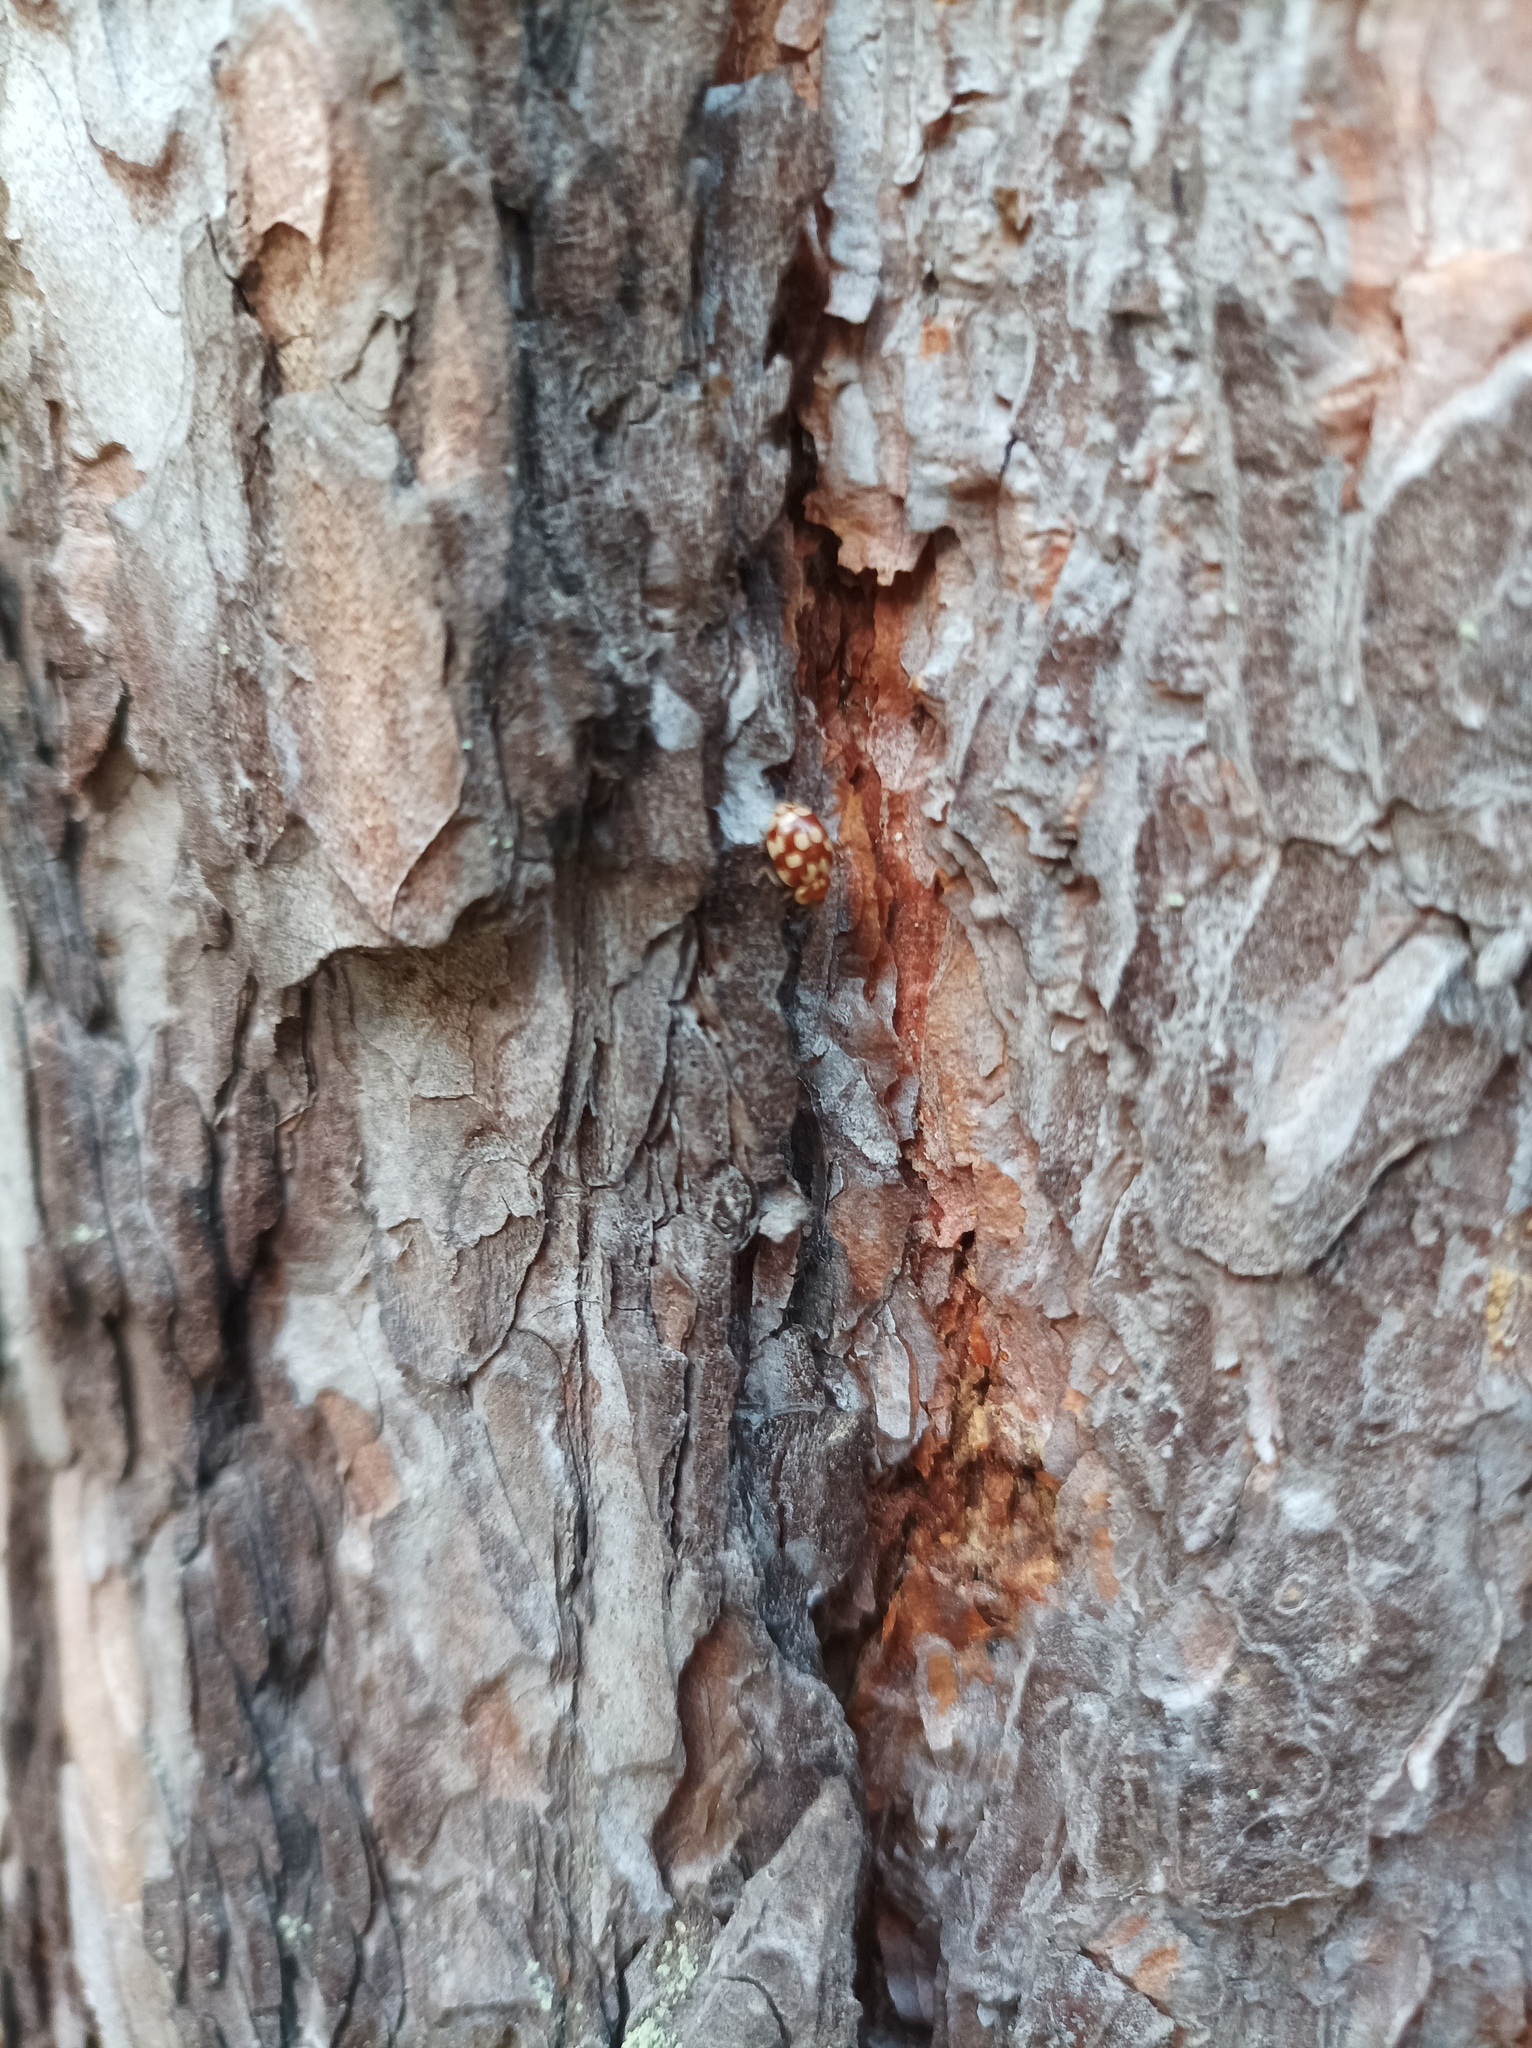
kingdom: Animalia
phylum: Arthropoda
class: Insecta
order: Coleoptera
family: Coccinellidae
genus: Myrrha
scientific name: Myrrha octodecimguttata
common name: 18-spot ladybird
